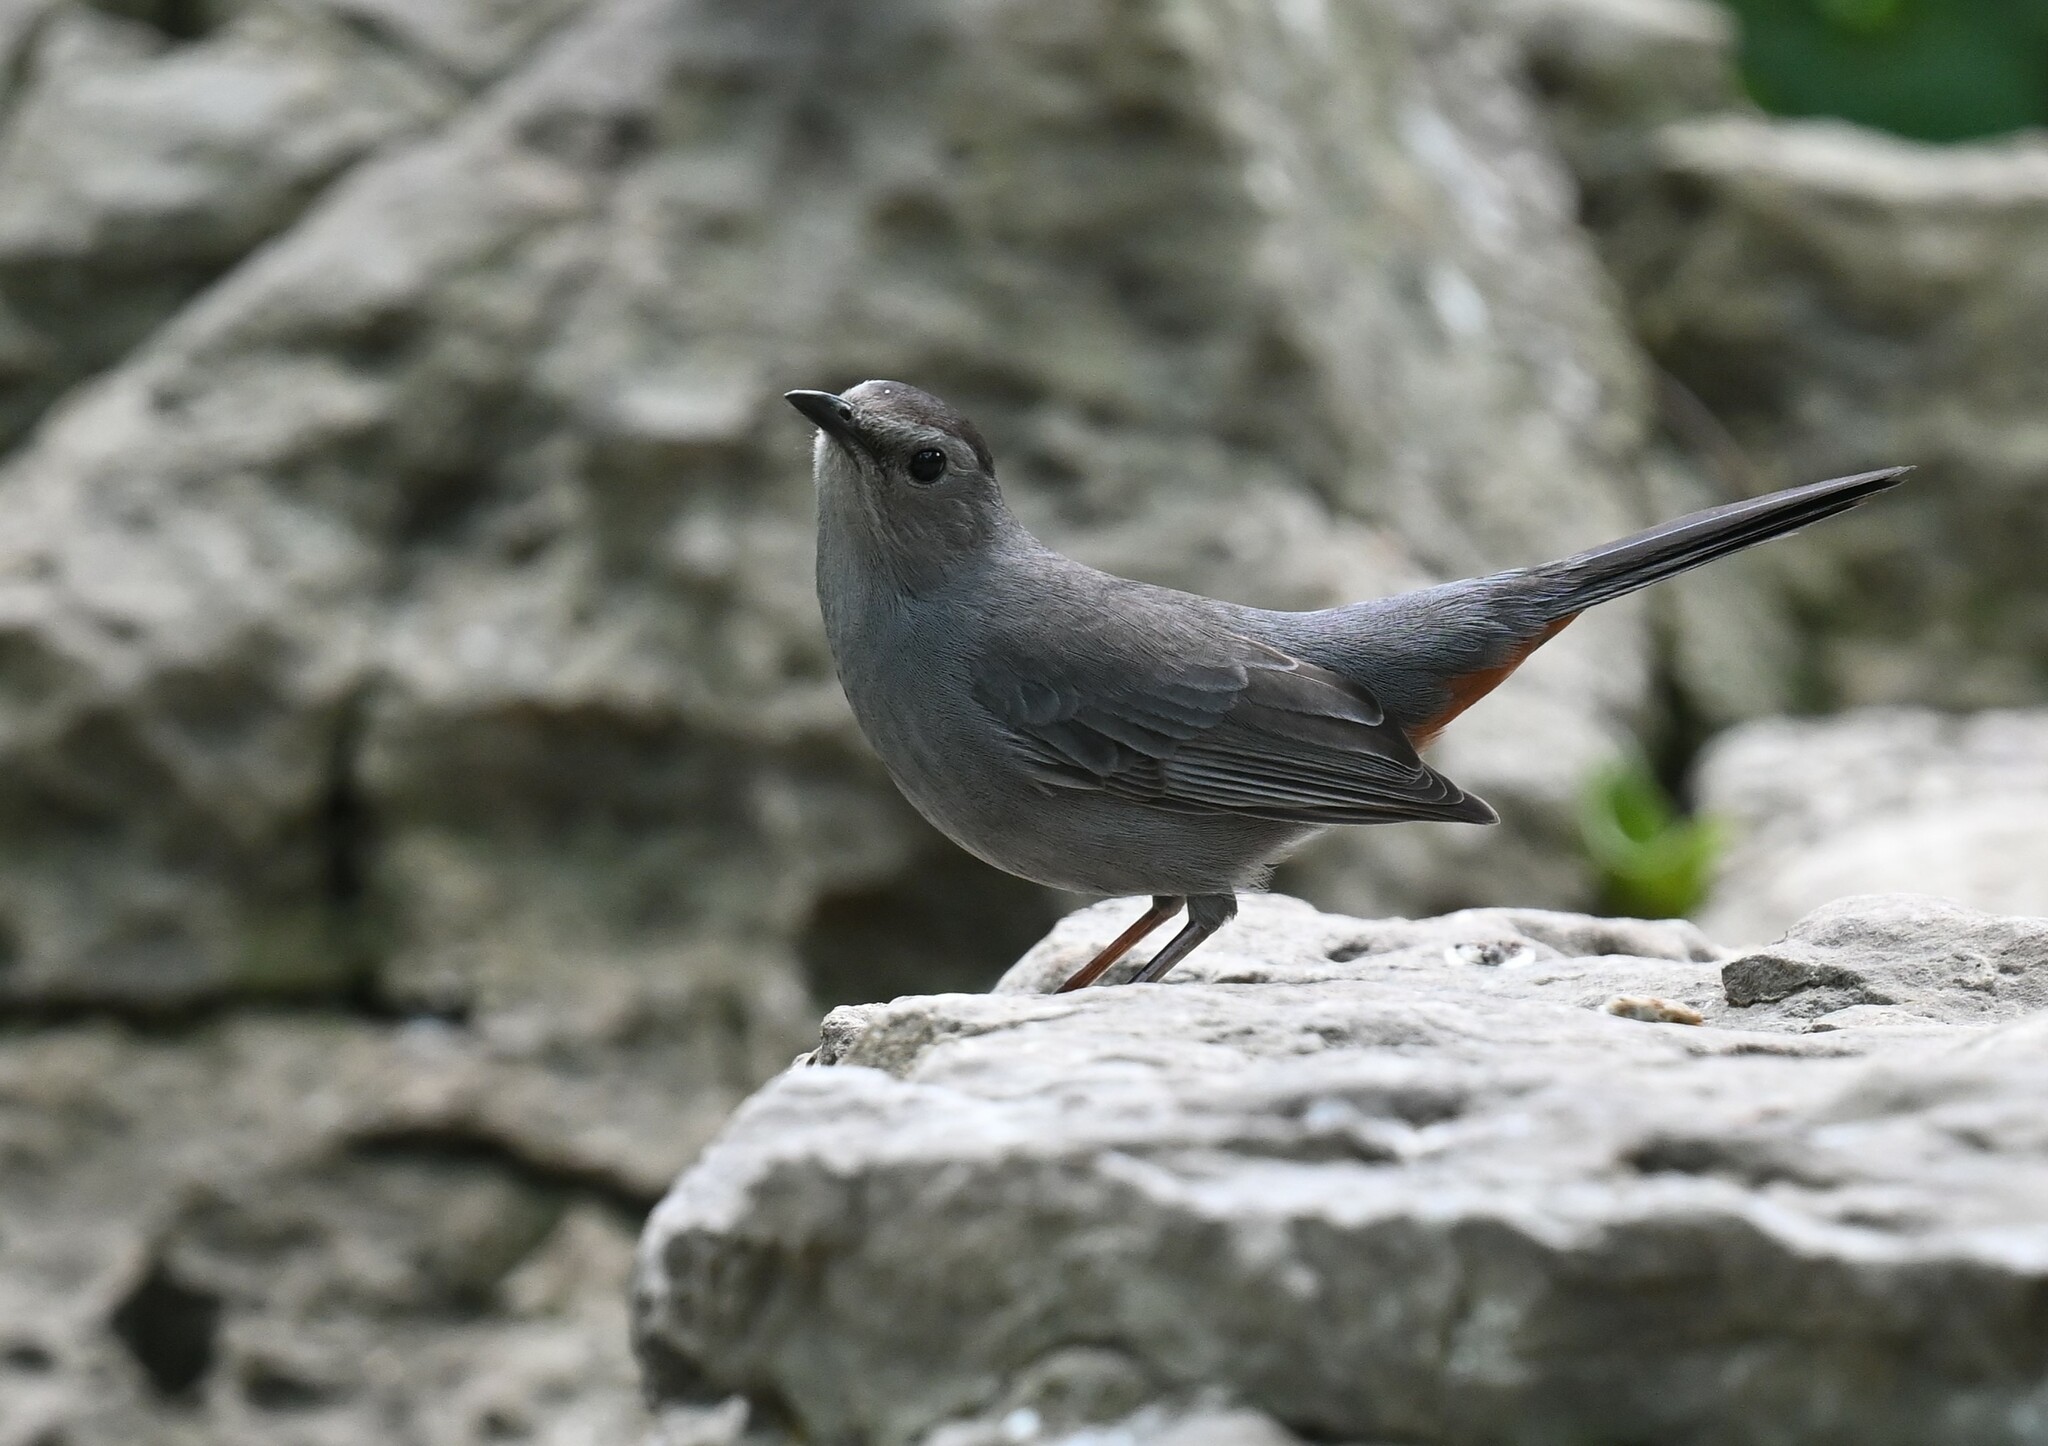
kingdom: Animalia
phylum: Chordata
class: Aves
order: Passeriformes
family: Mimidae
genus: Dumetella
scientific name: Dumetella carolinensis
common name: Gray catbird
